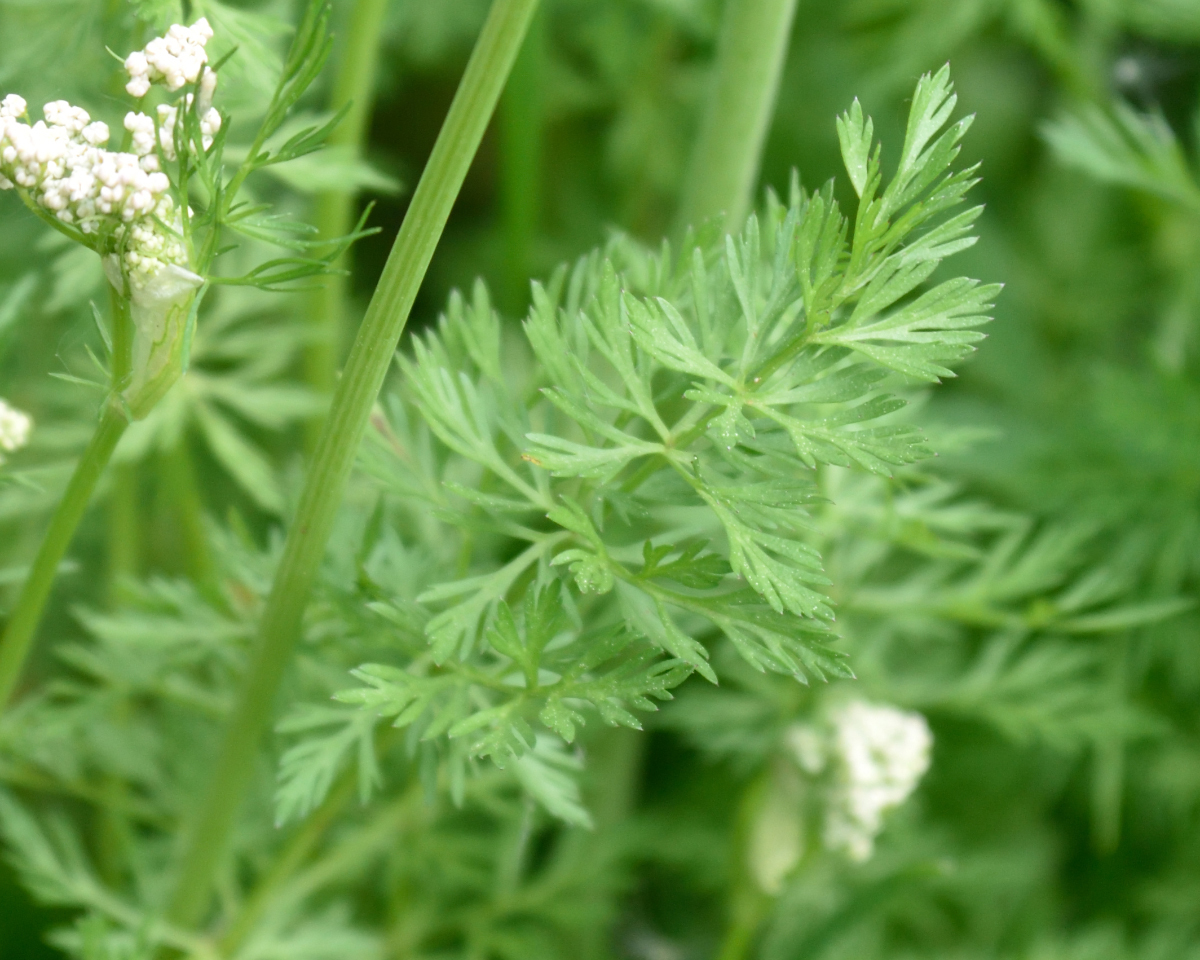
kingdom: Plantae
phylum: Tracheophyta
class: Magnoliopsida
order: Apiales
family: Apiaceae
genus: Carum
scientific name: Carum carvi
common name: Caraway
